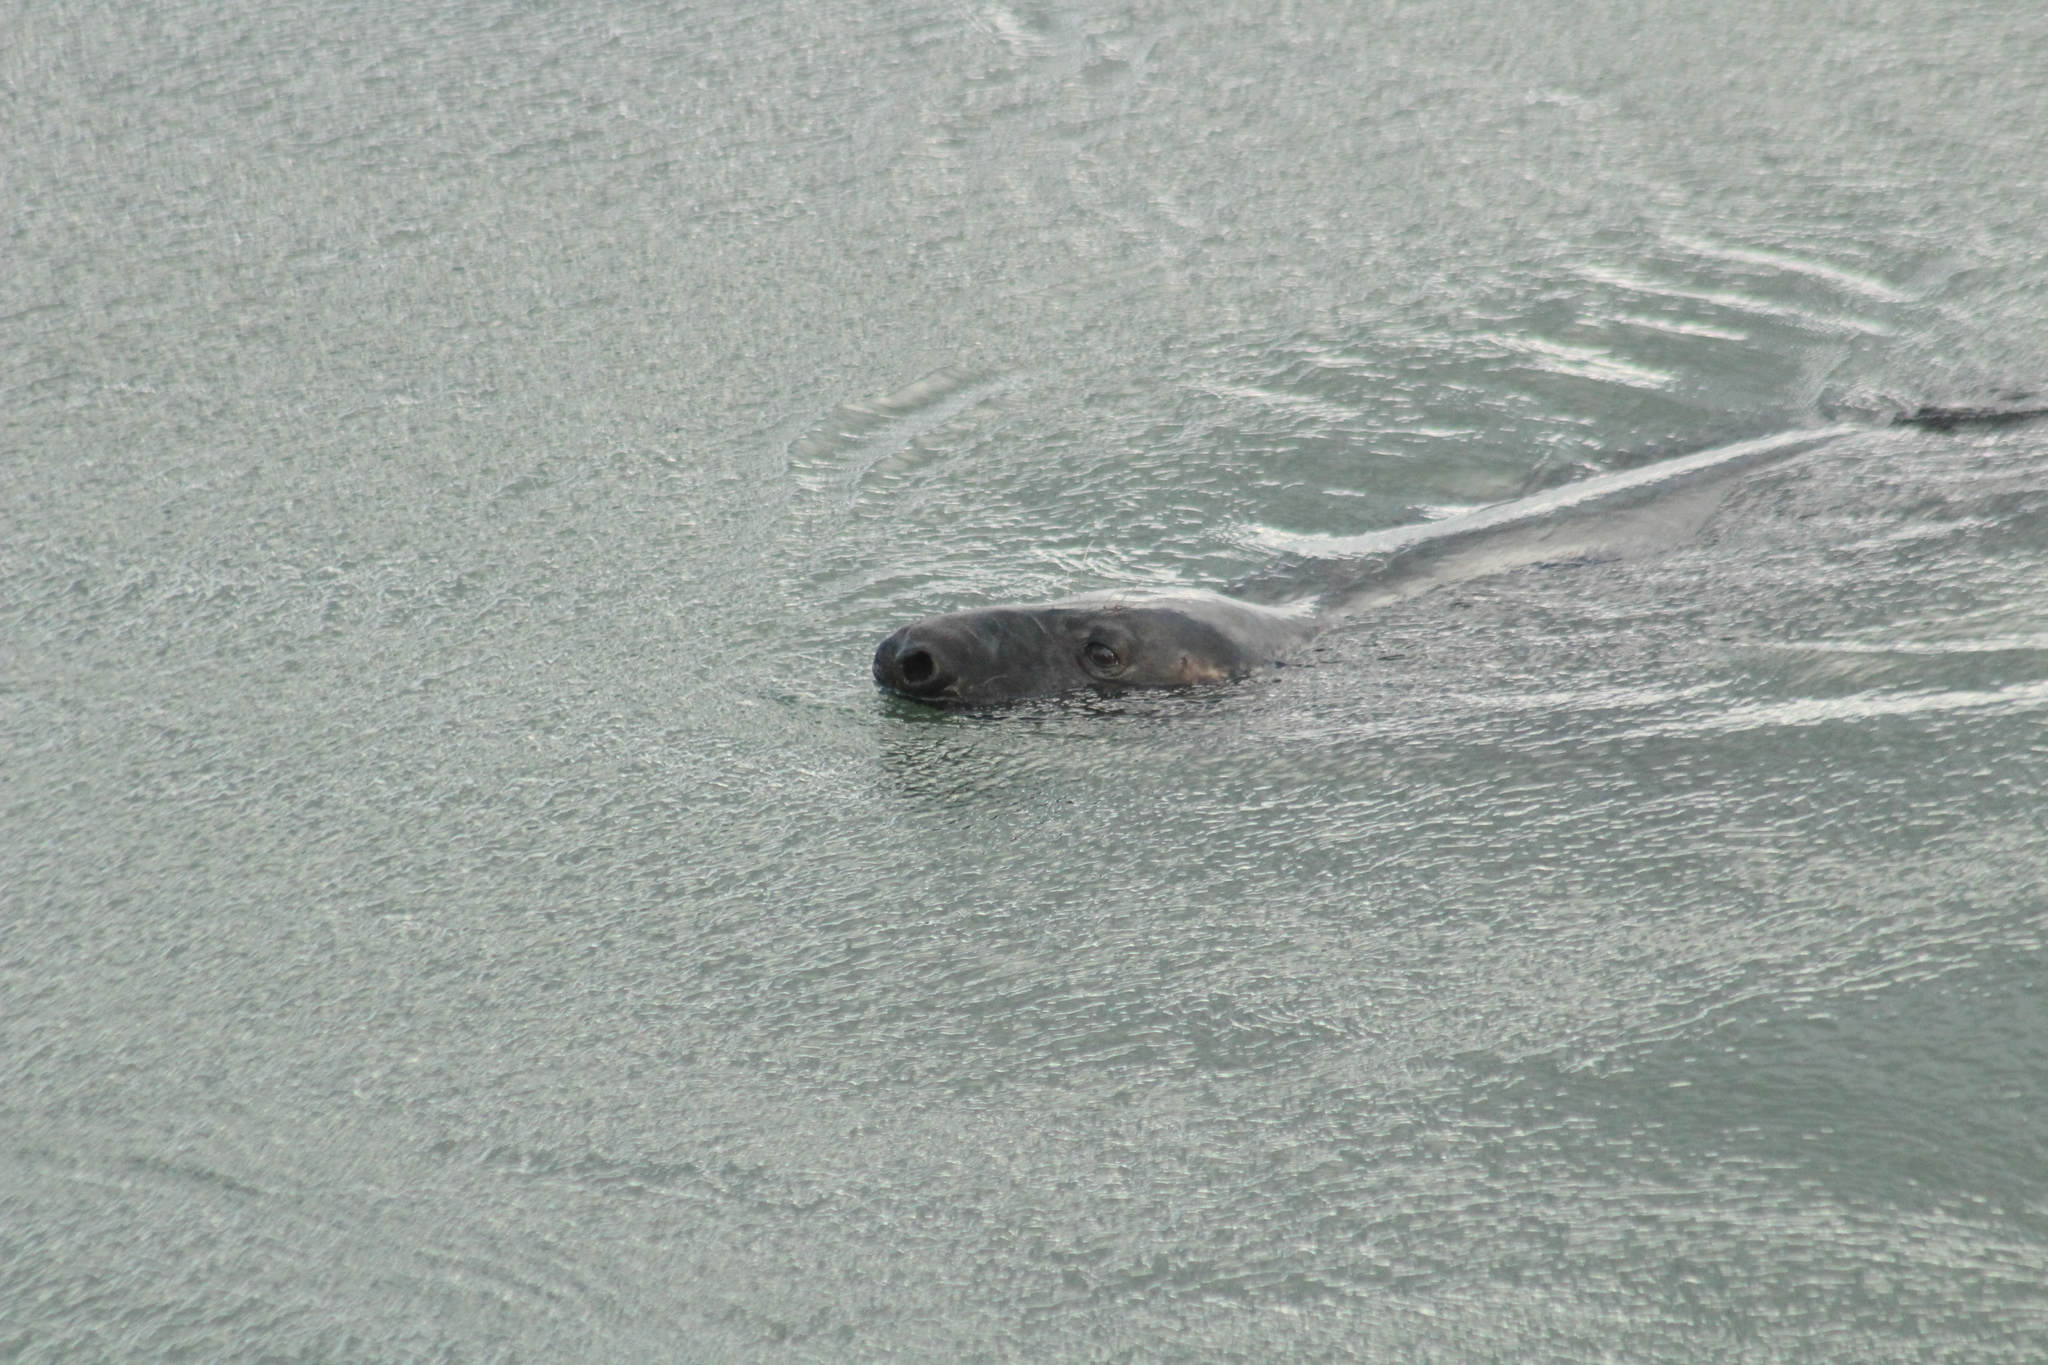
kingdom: Animalia
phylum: Chordata
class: Mammalia
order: Carnivora
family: Phocidae
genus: Halichoerus
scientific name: Halichoerus grypus
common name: Grey seal
